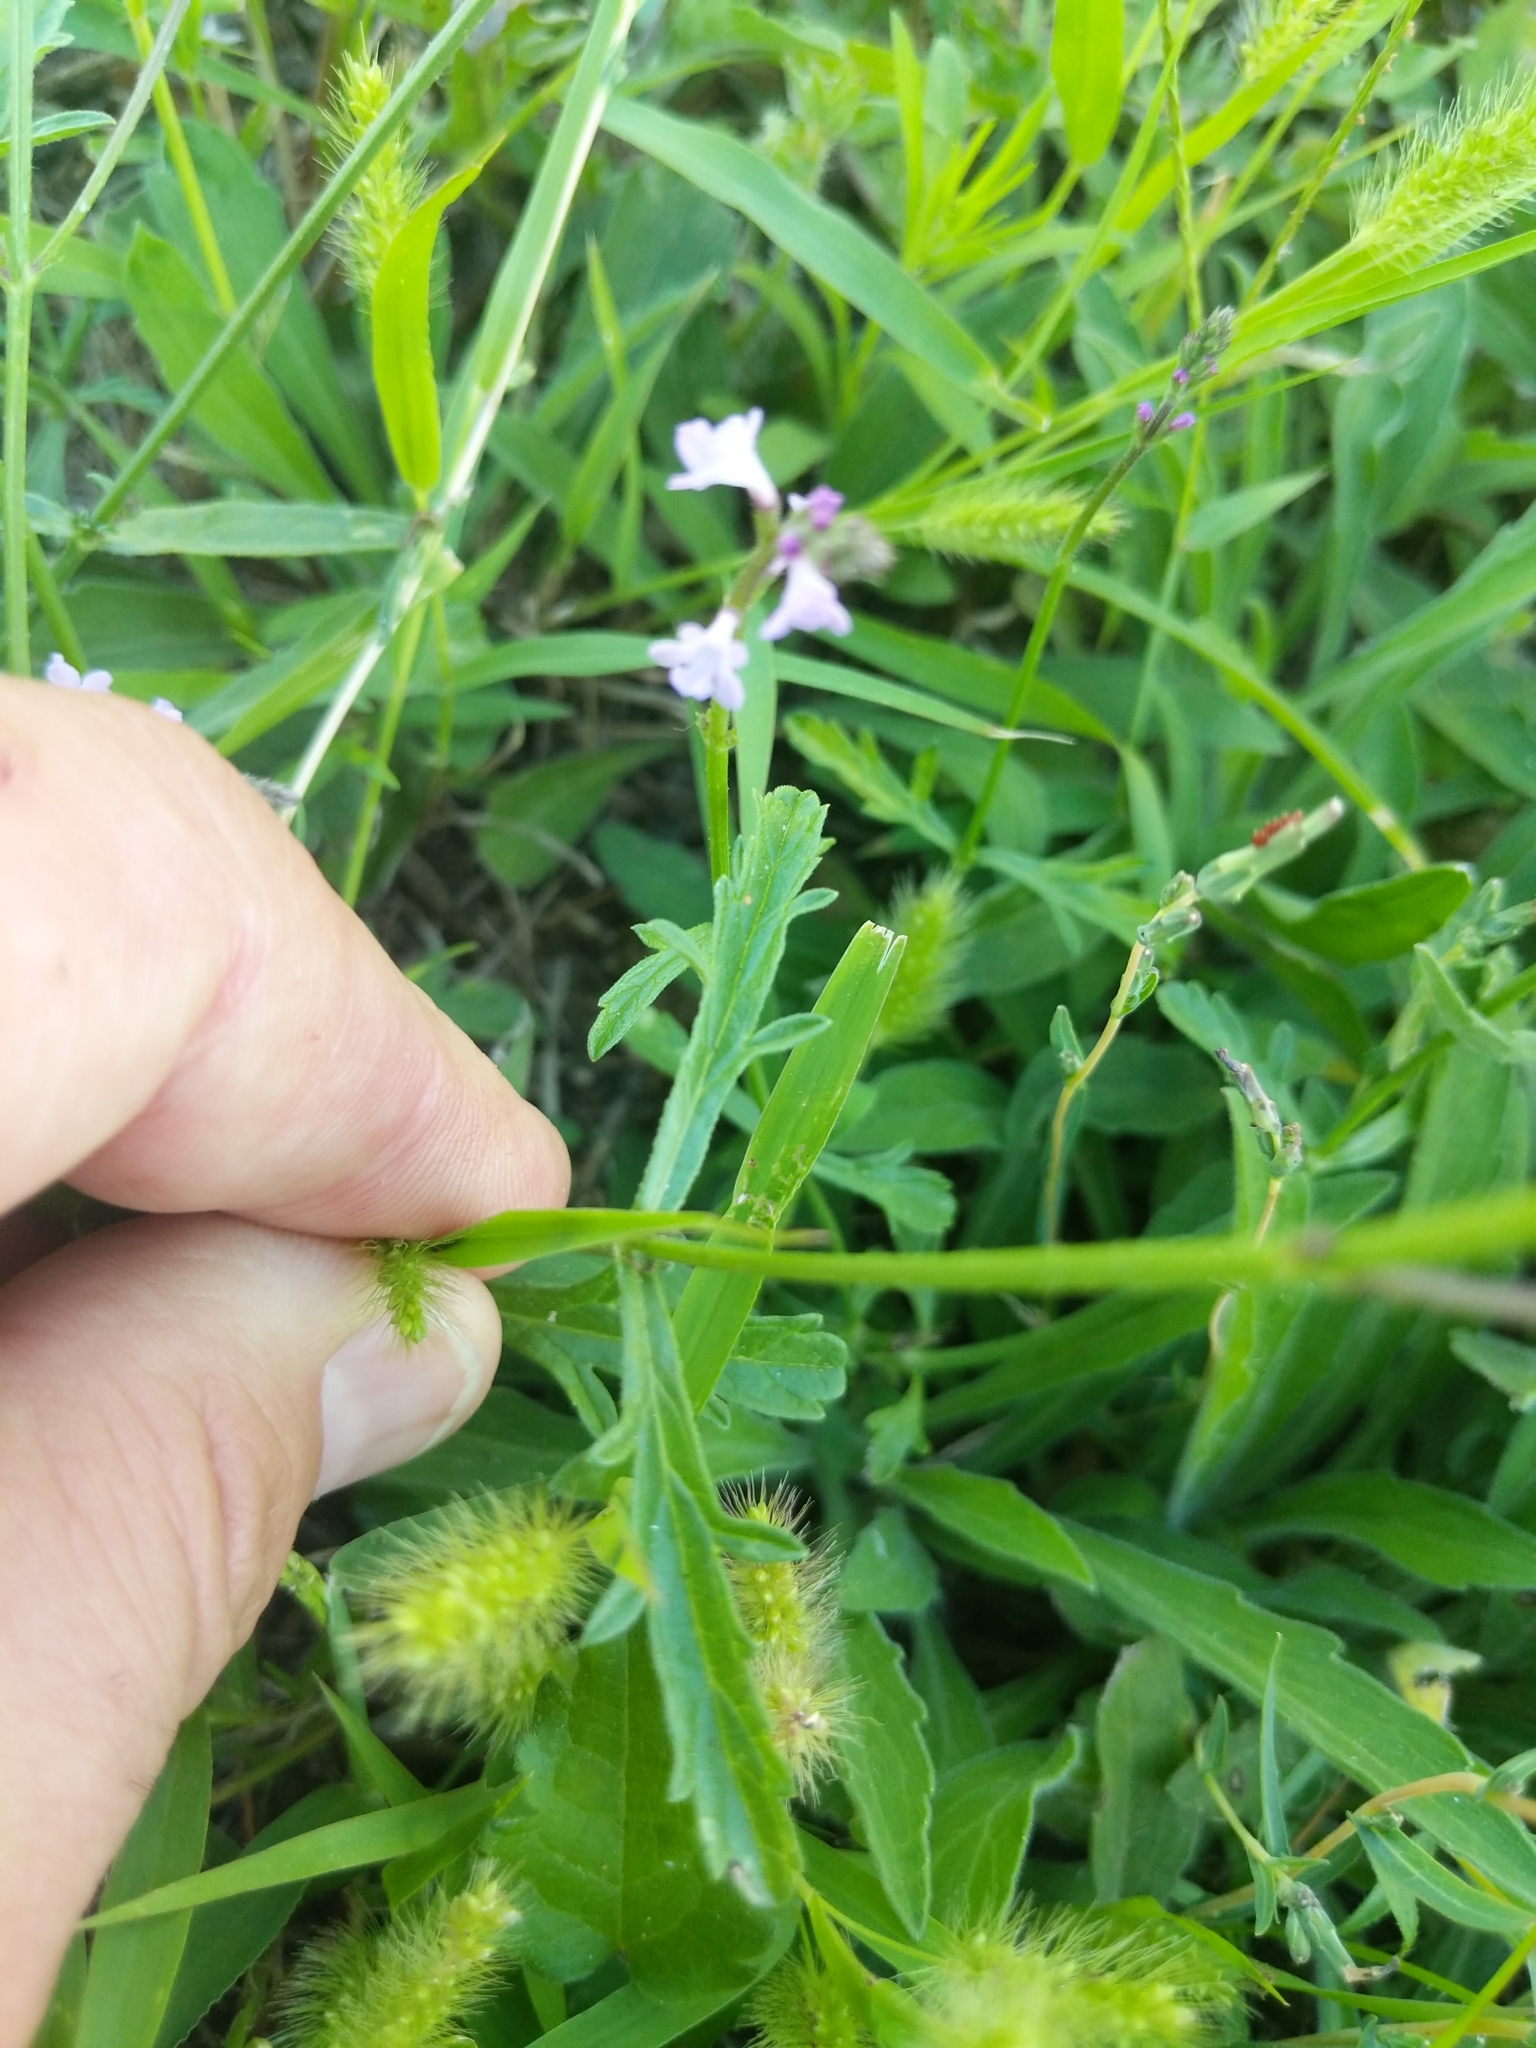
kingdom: Plantae
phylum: Tracheophyta
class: Magnoliopsida
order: Lamiales
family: Verbenaceae
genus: Verbena
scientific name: Verbena officinalis
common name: Vervain
